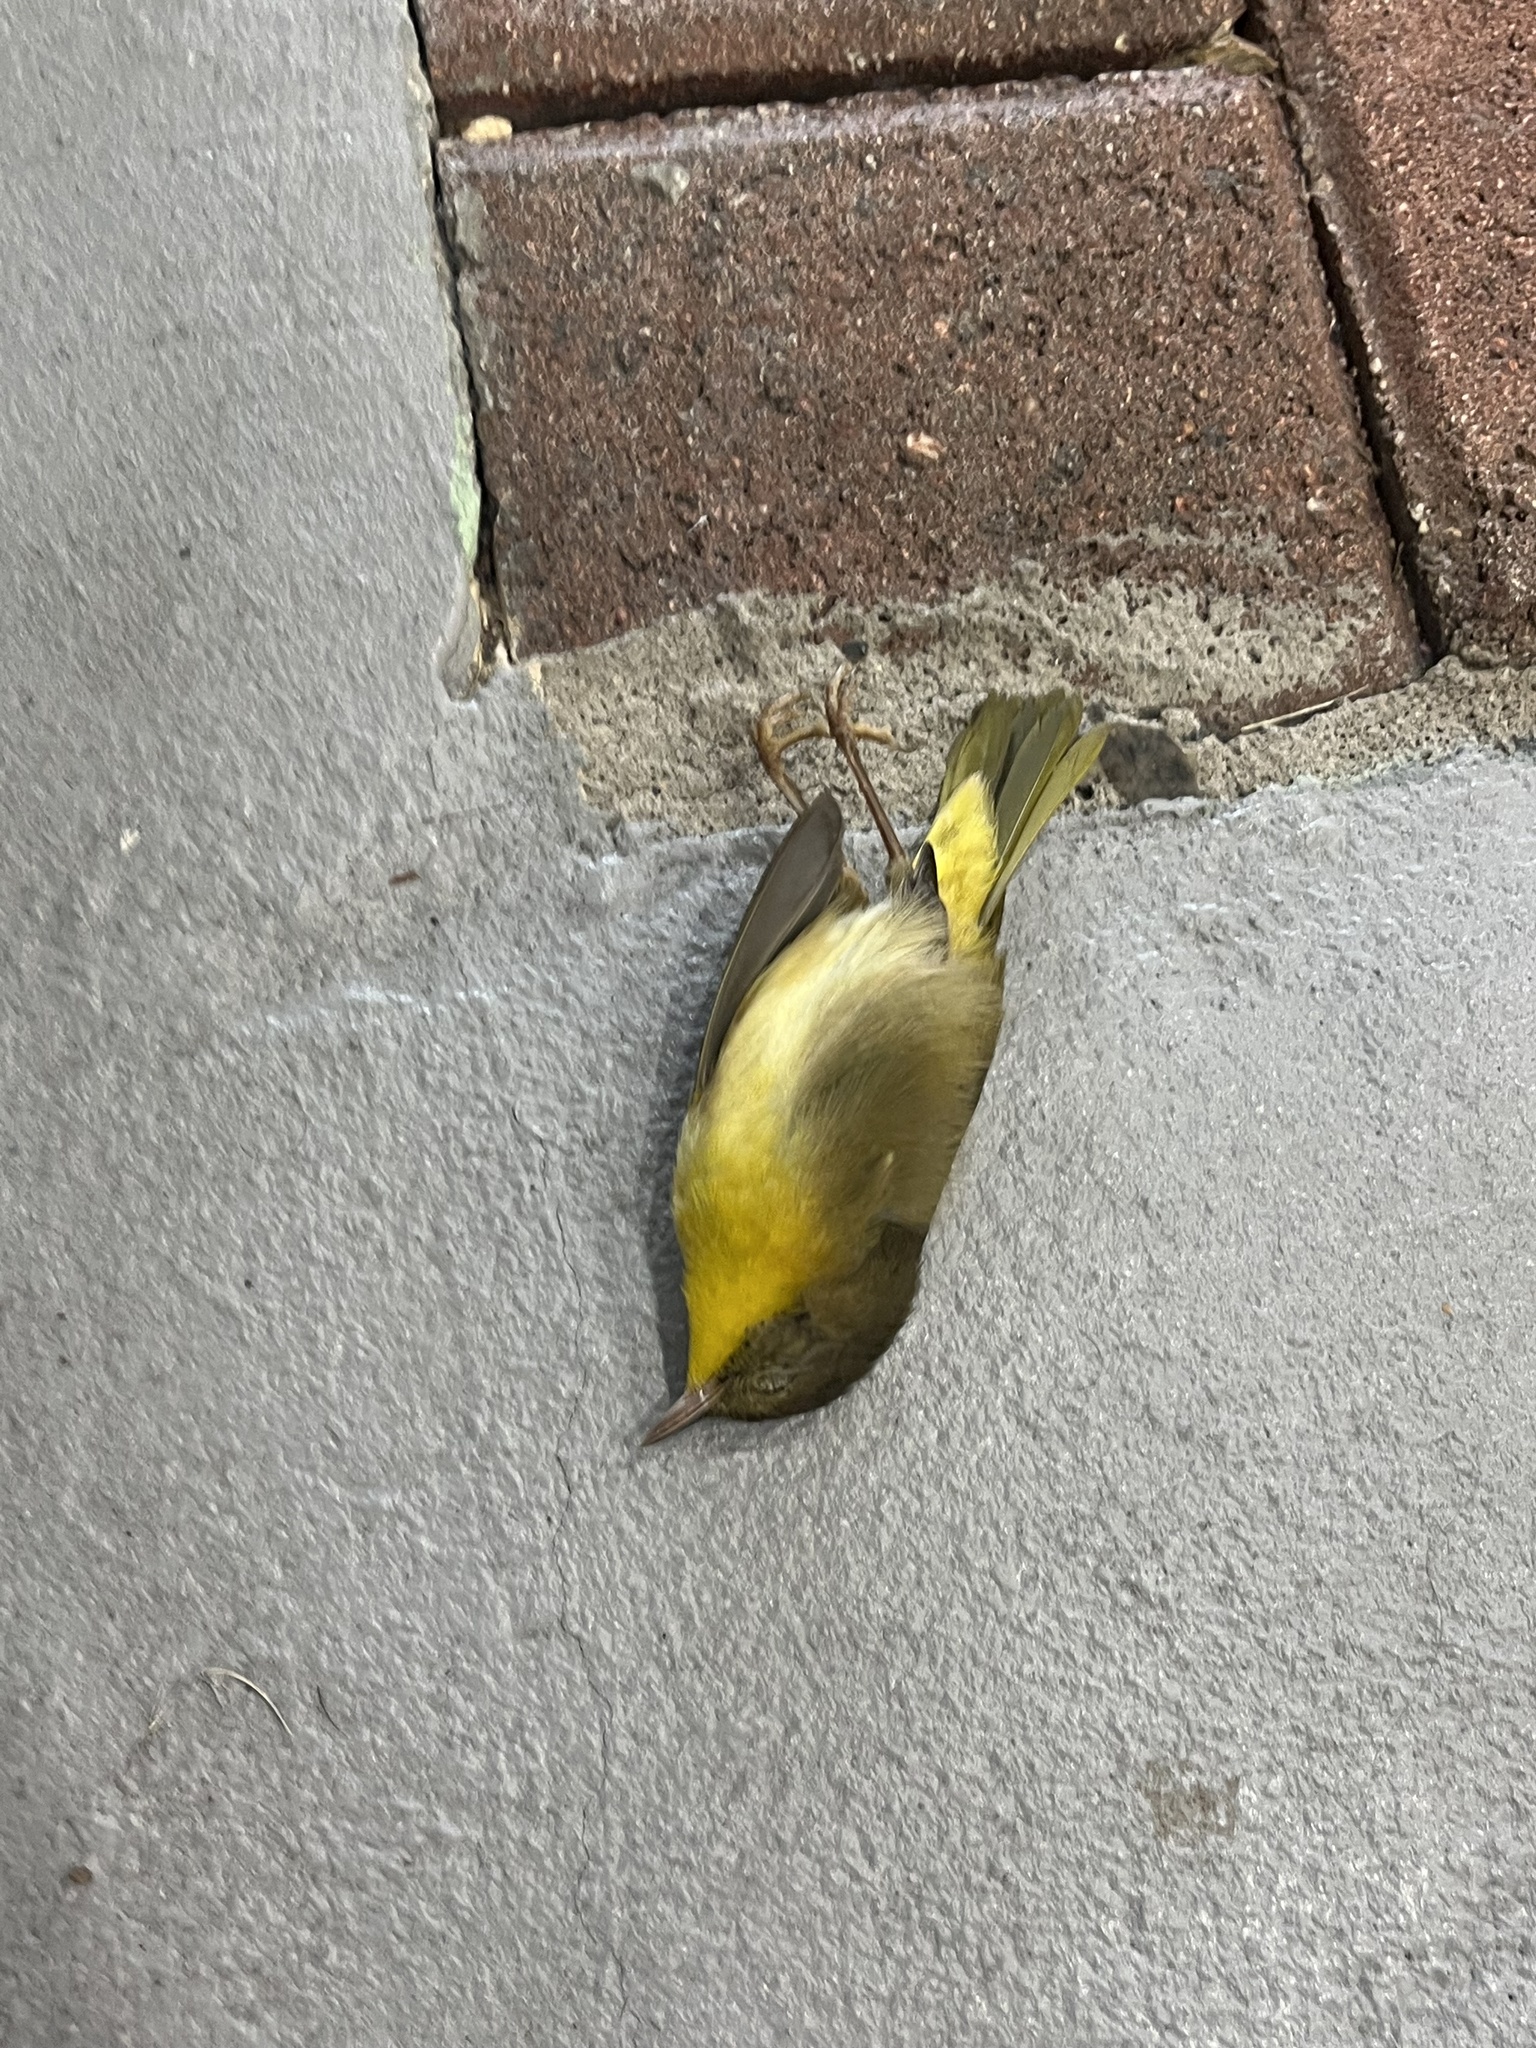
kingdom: Animalia
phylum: Chordata
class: Aves
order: Passeriformes
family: Parulidae
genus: Geothlypis
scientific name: Geothlypis trichas
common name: Common yellowthroat
